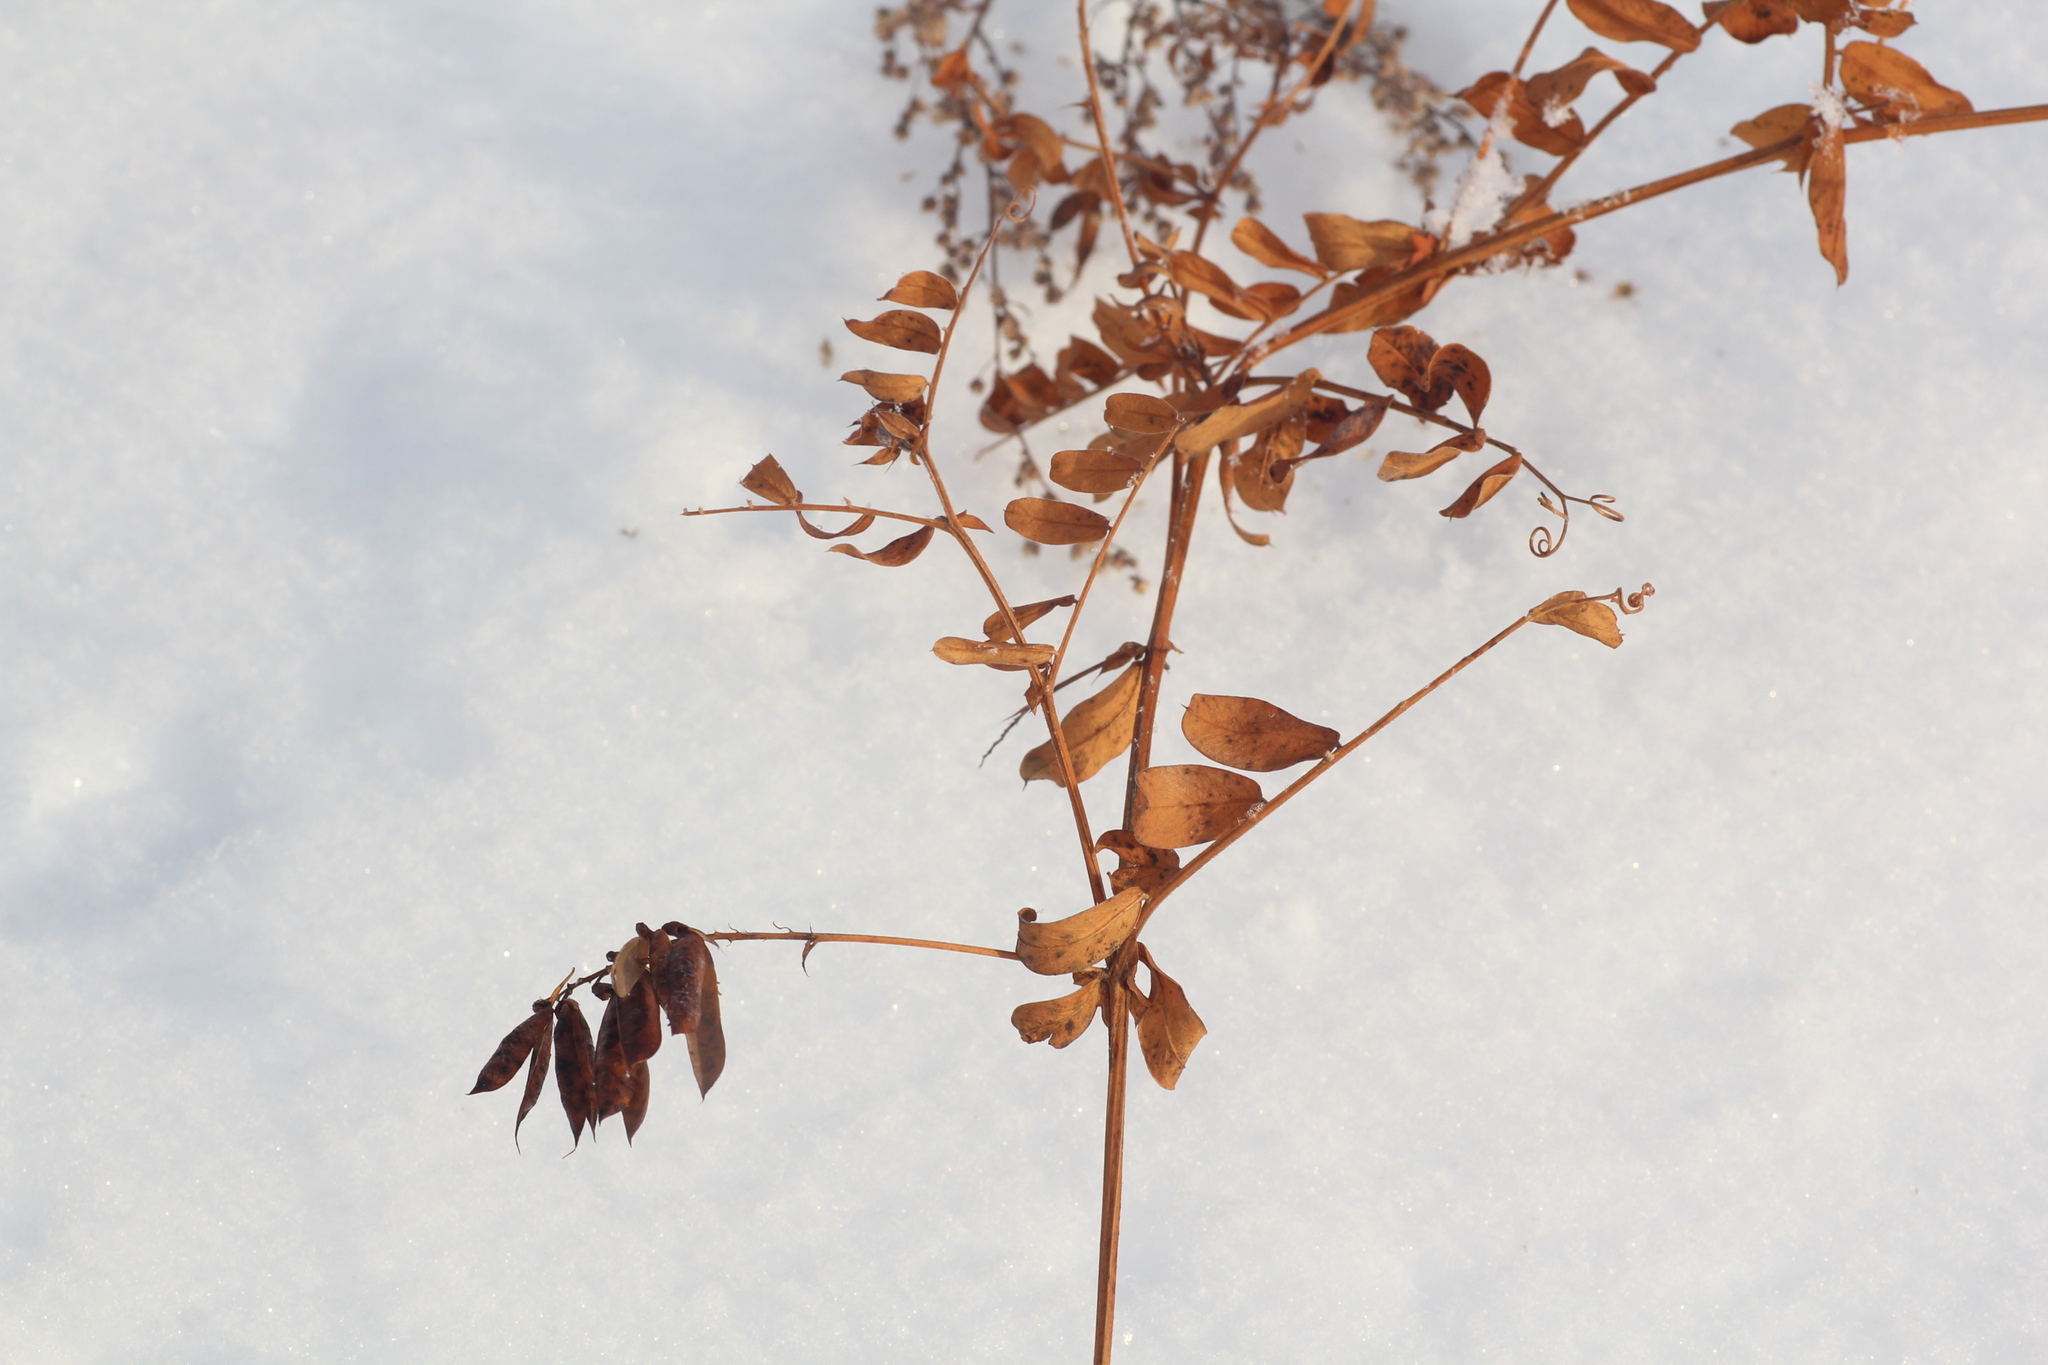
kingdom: Plantae
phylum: Tracheophyta
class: Magnoliopsida
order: Fabales
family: Fabaceae
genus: Vicia
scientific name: Vicia sylvatica
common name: Wood vetch
